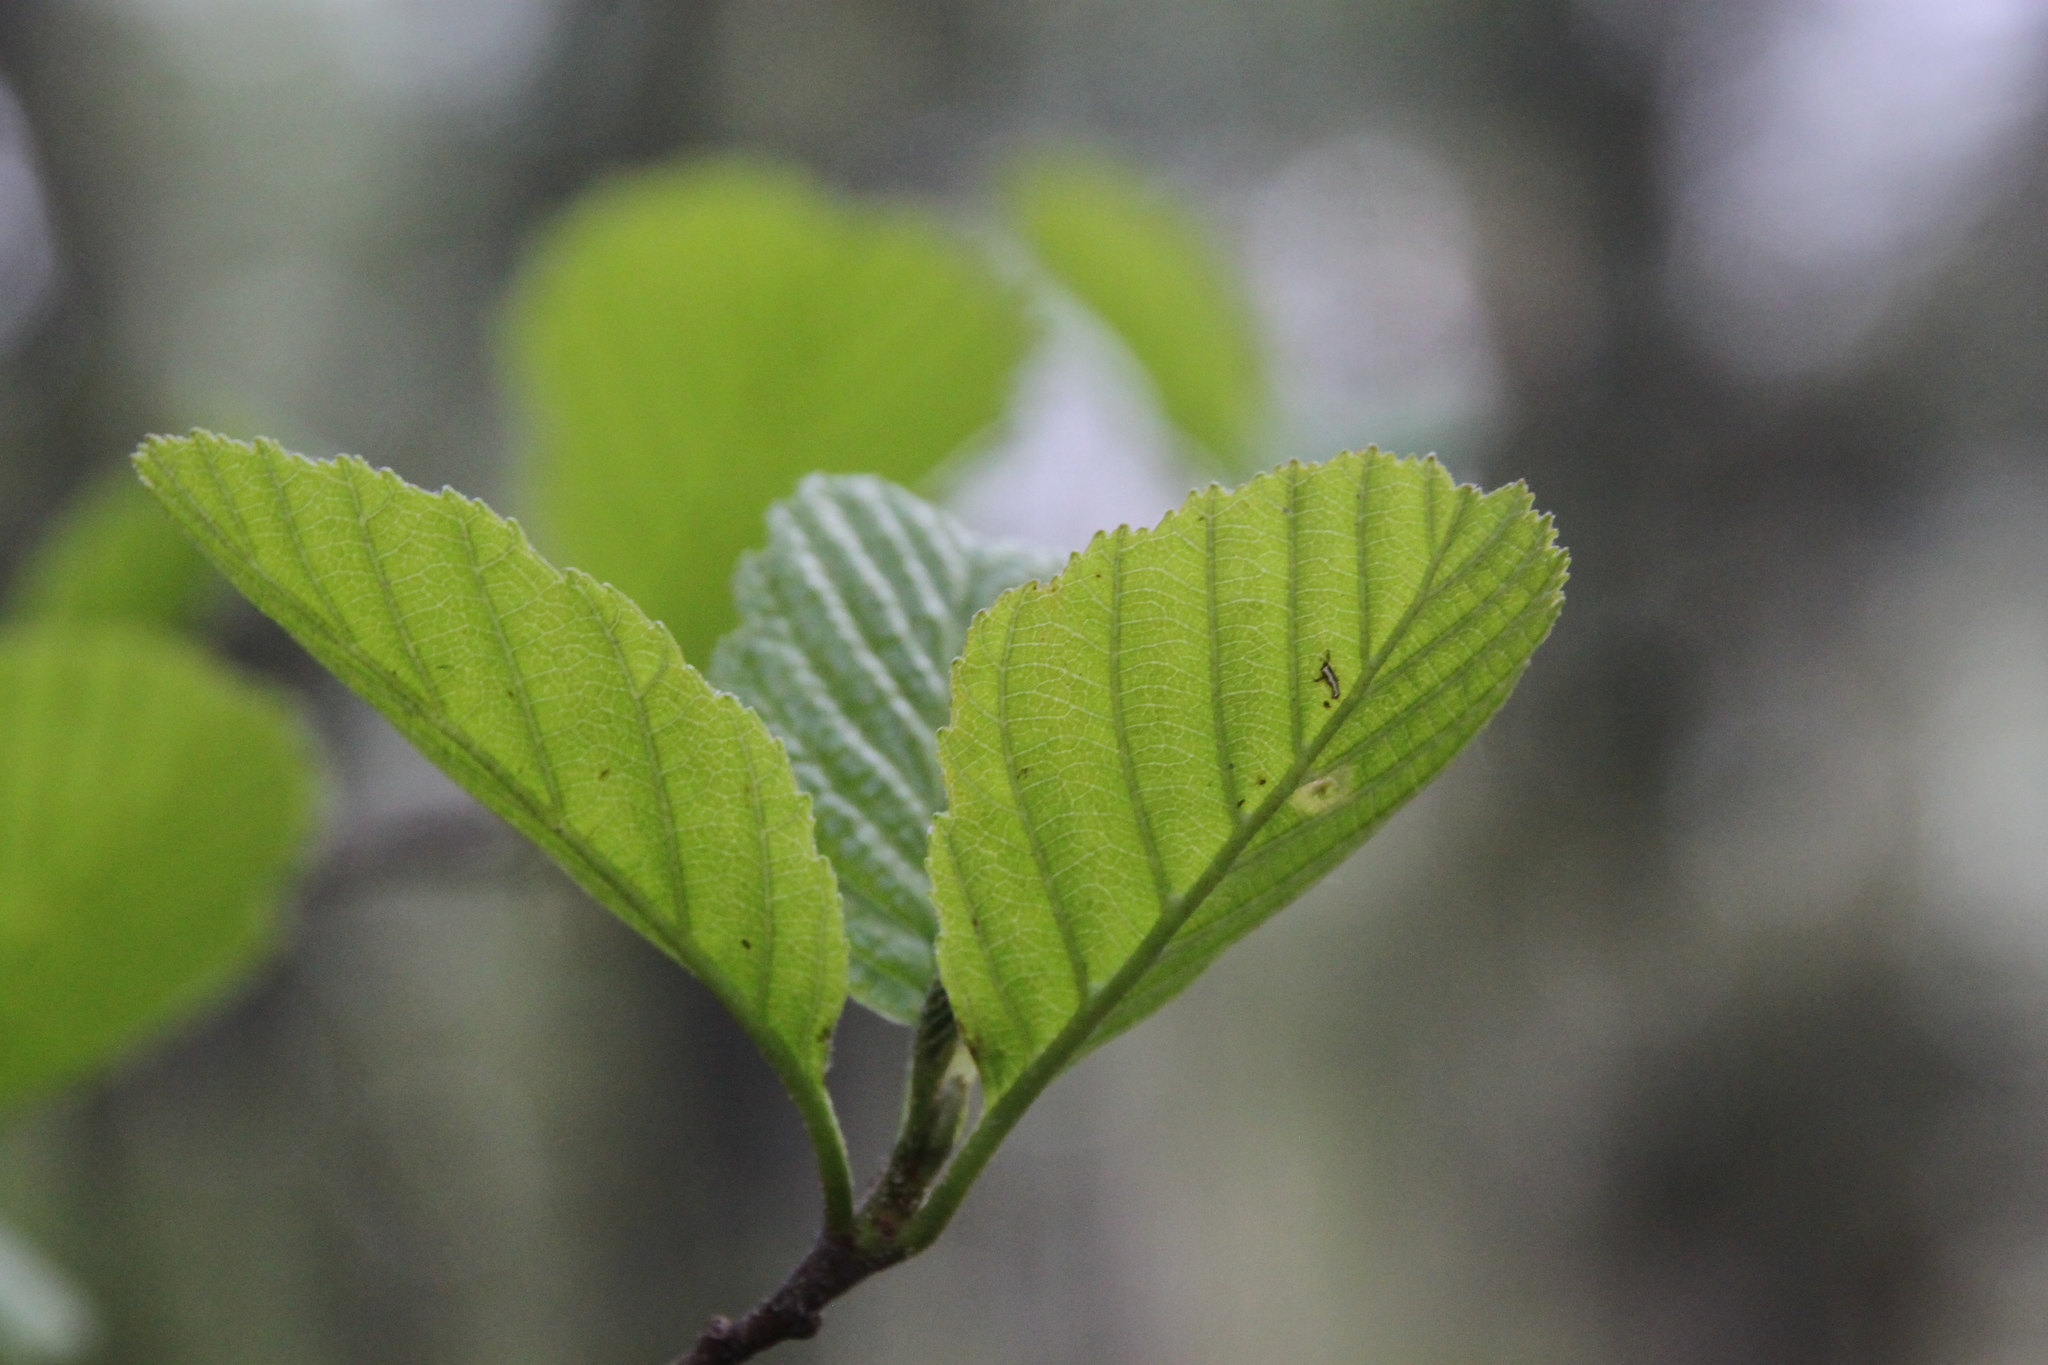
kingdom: Plantae
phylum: Tracheophyta
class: Magnoliopsida
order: Fagales
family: Betulaceae
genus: Alnus
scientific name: Alnus glutinosa
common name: Black alder
